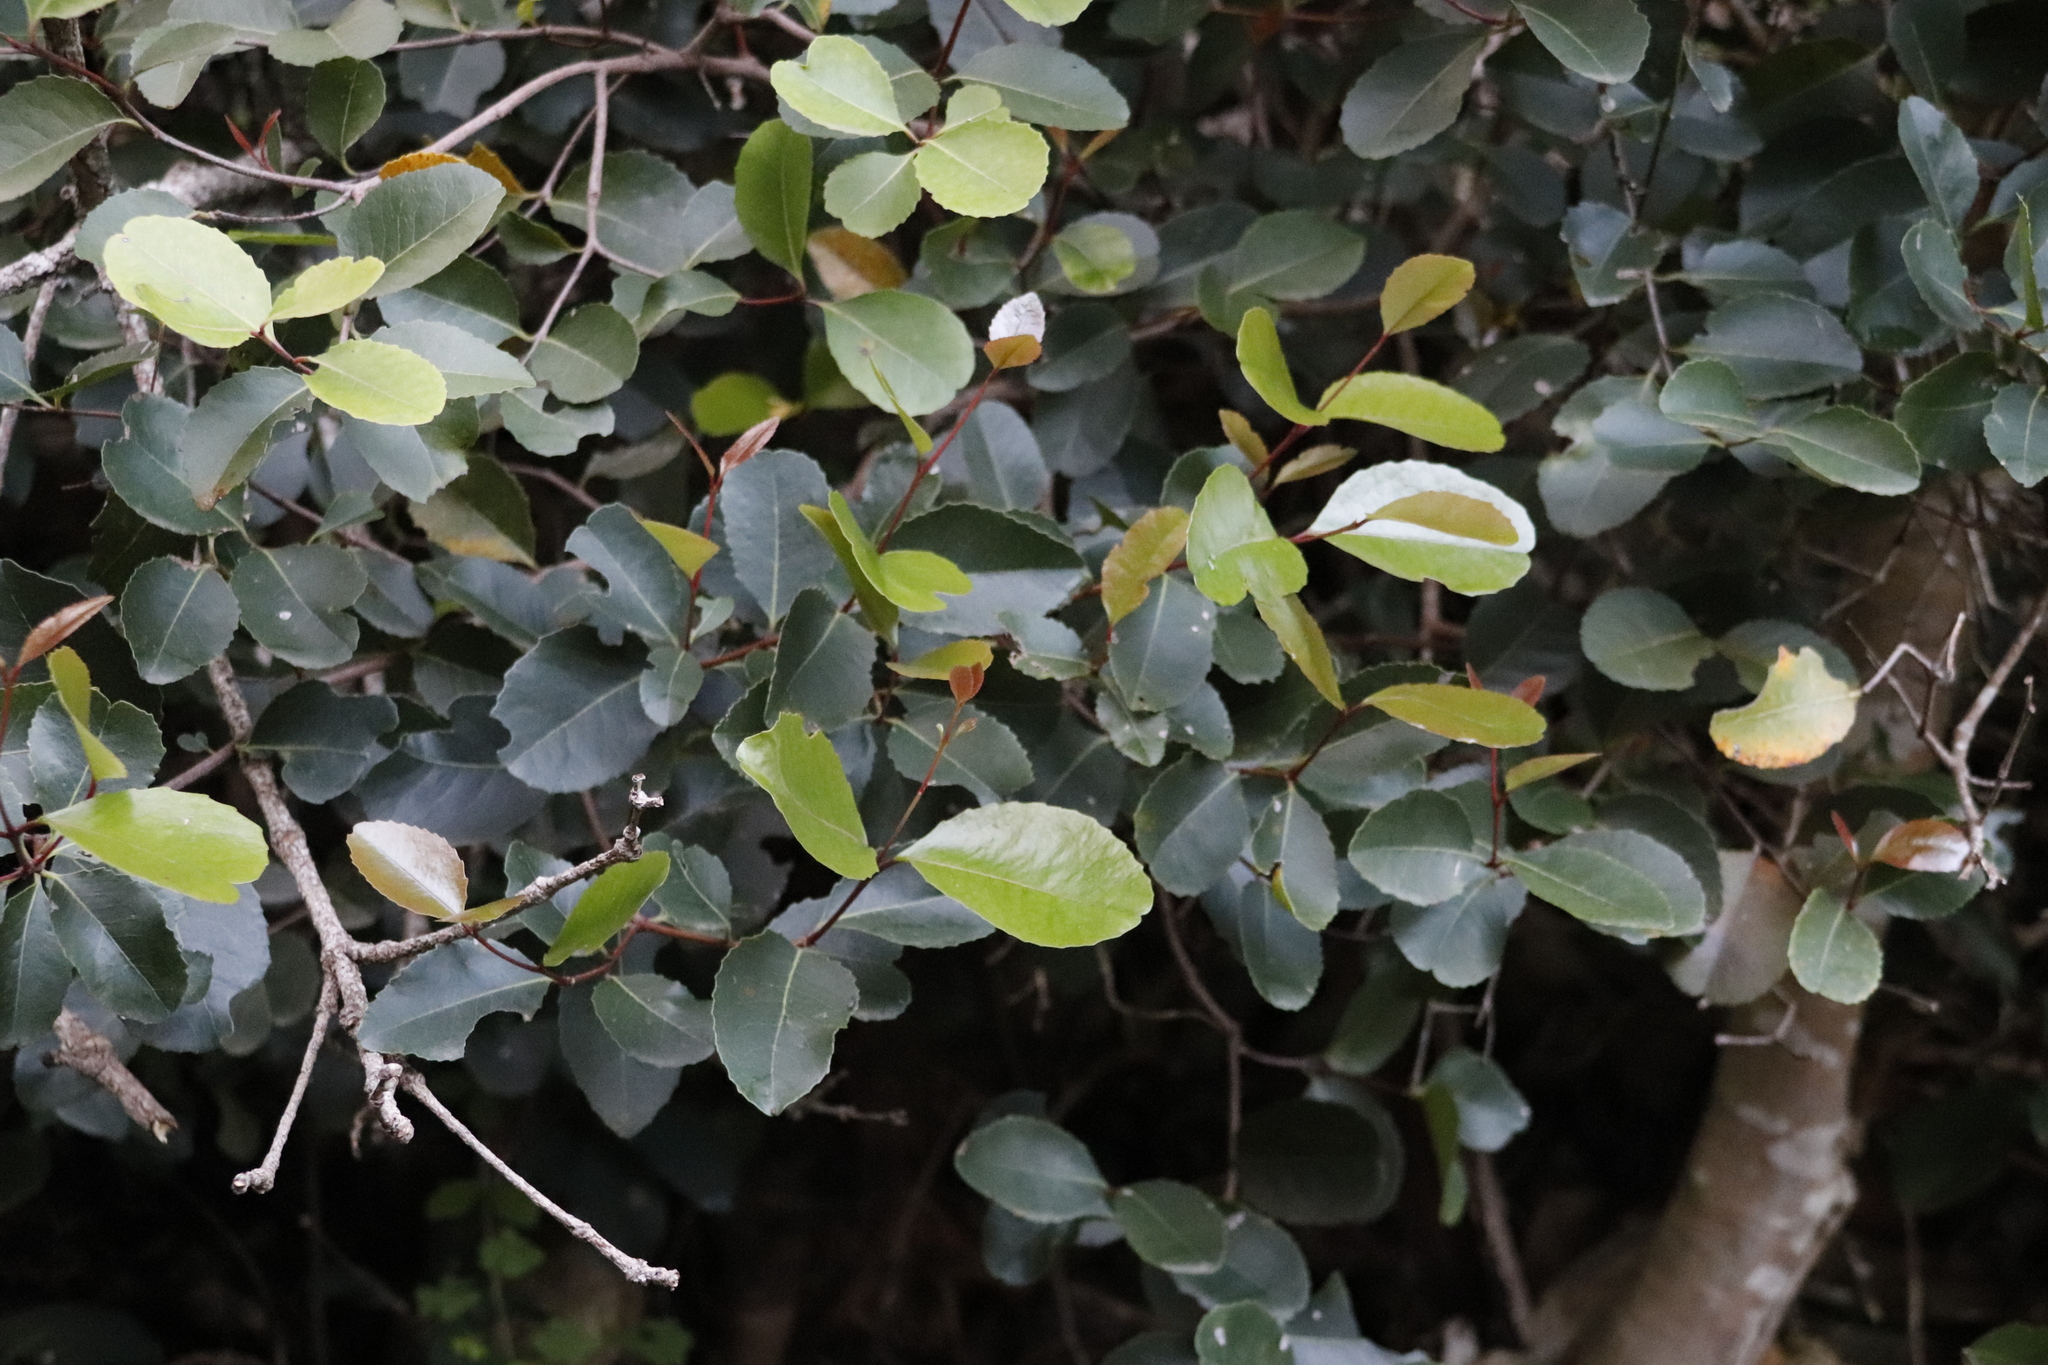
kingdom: Plantae
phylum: Tracheophyta
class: Magnoliopsida
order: Celastrales
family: Celastraceae
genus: Cassine
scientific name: Cassine peragua
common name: Cape saffron
